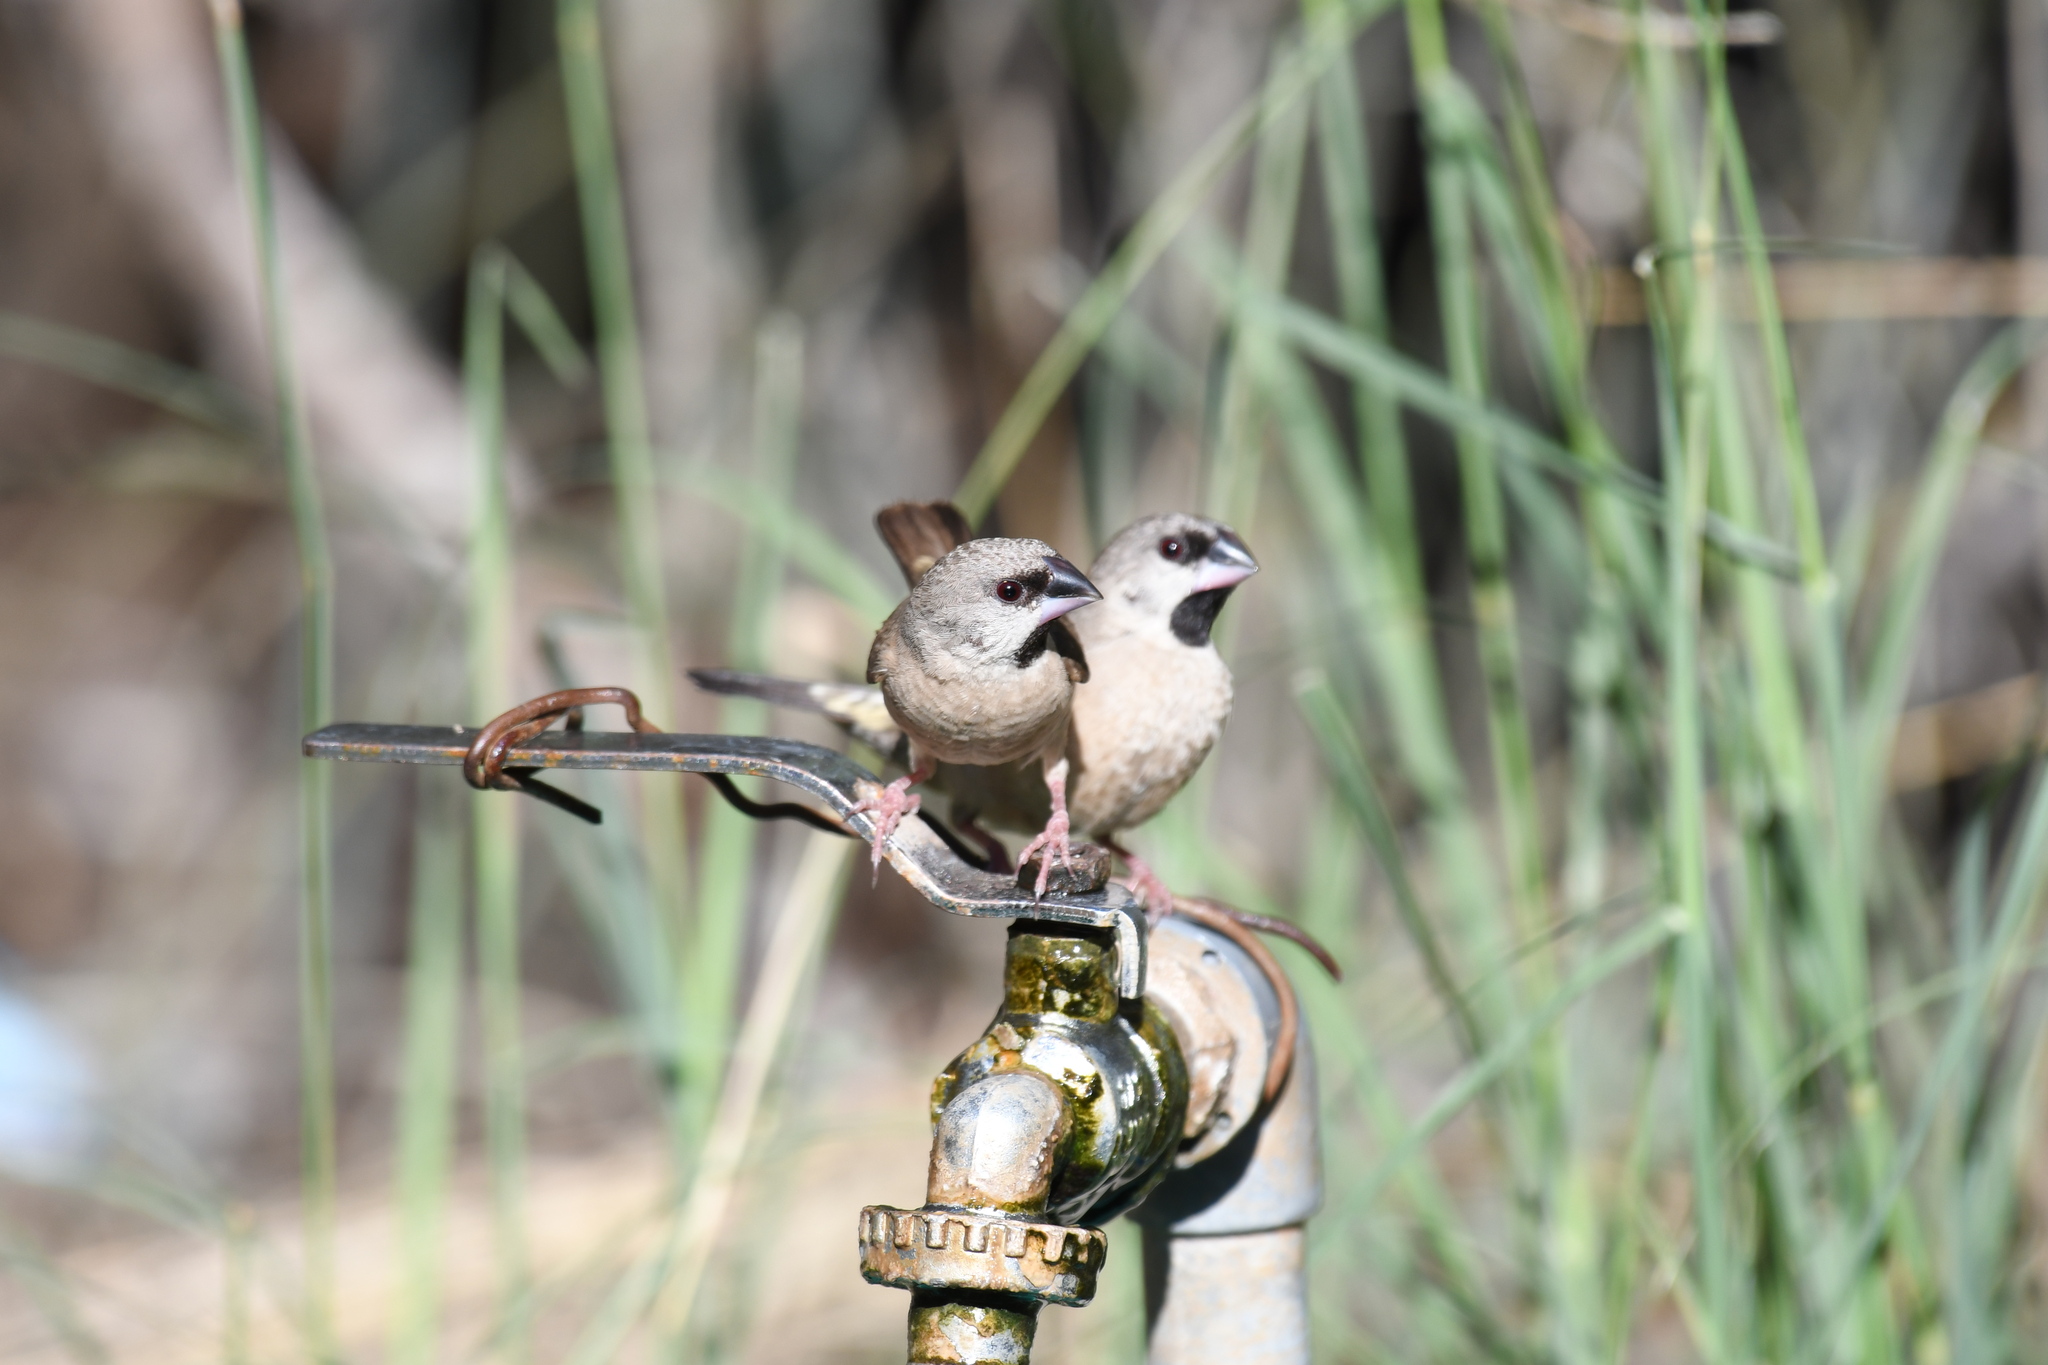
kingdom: Animalia
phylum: Chordata
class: Aves
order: Passeriformes
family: Estrildidae
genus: Lemuresthes
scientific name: Lemuresthes nana
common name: Madagascar mannikin
